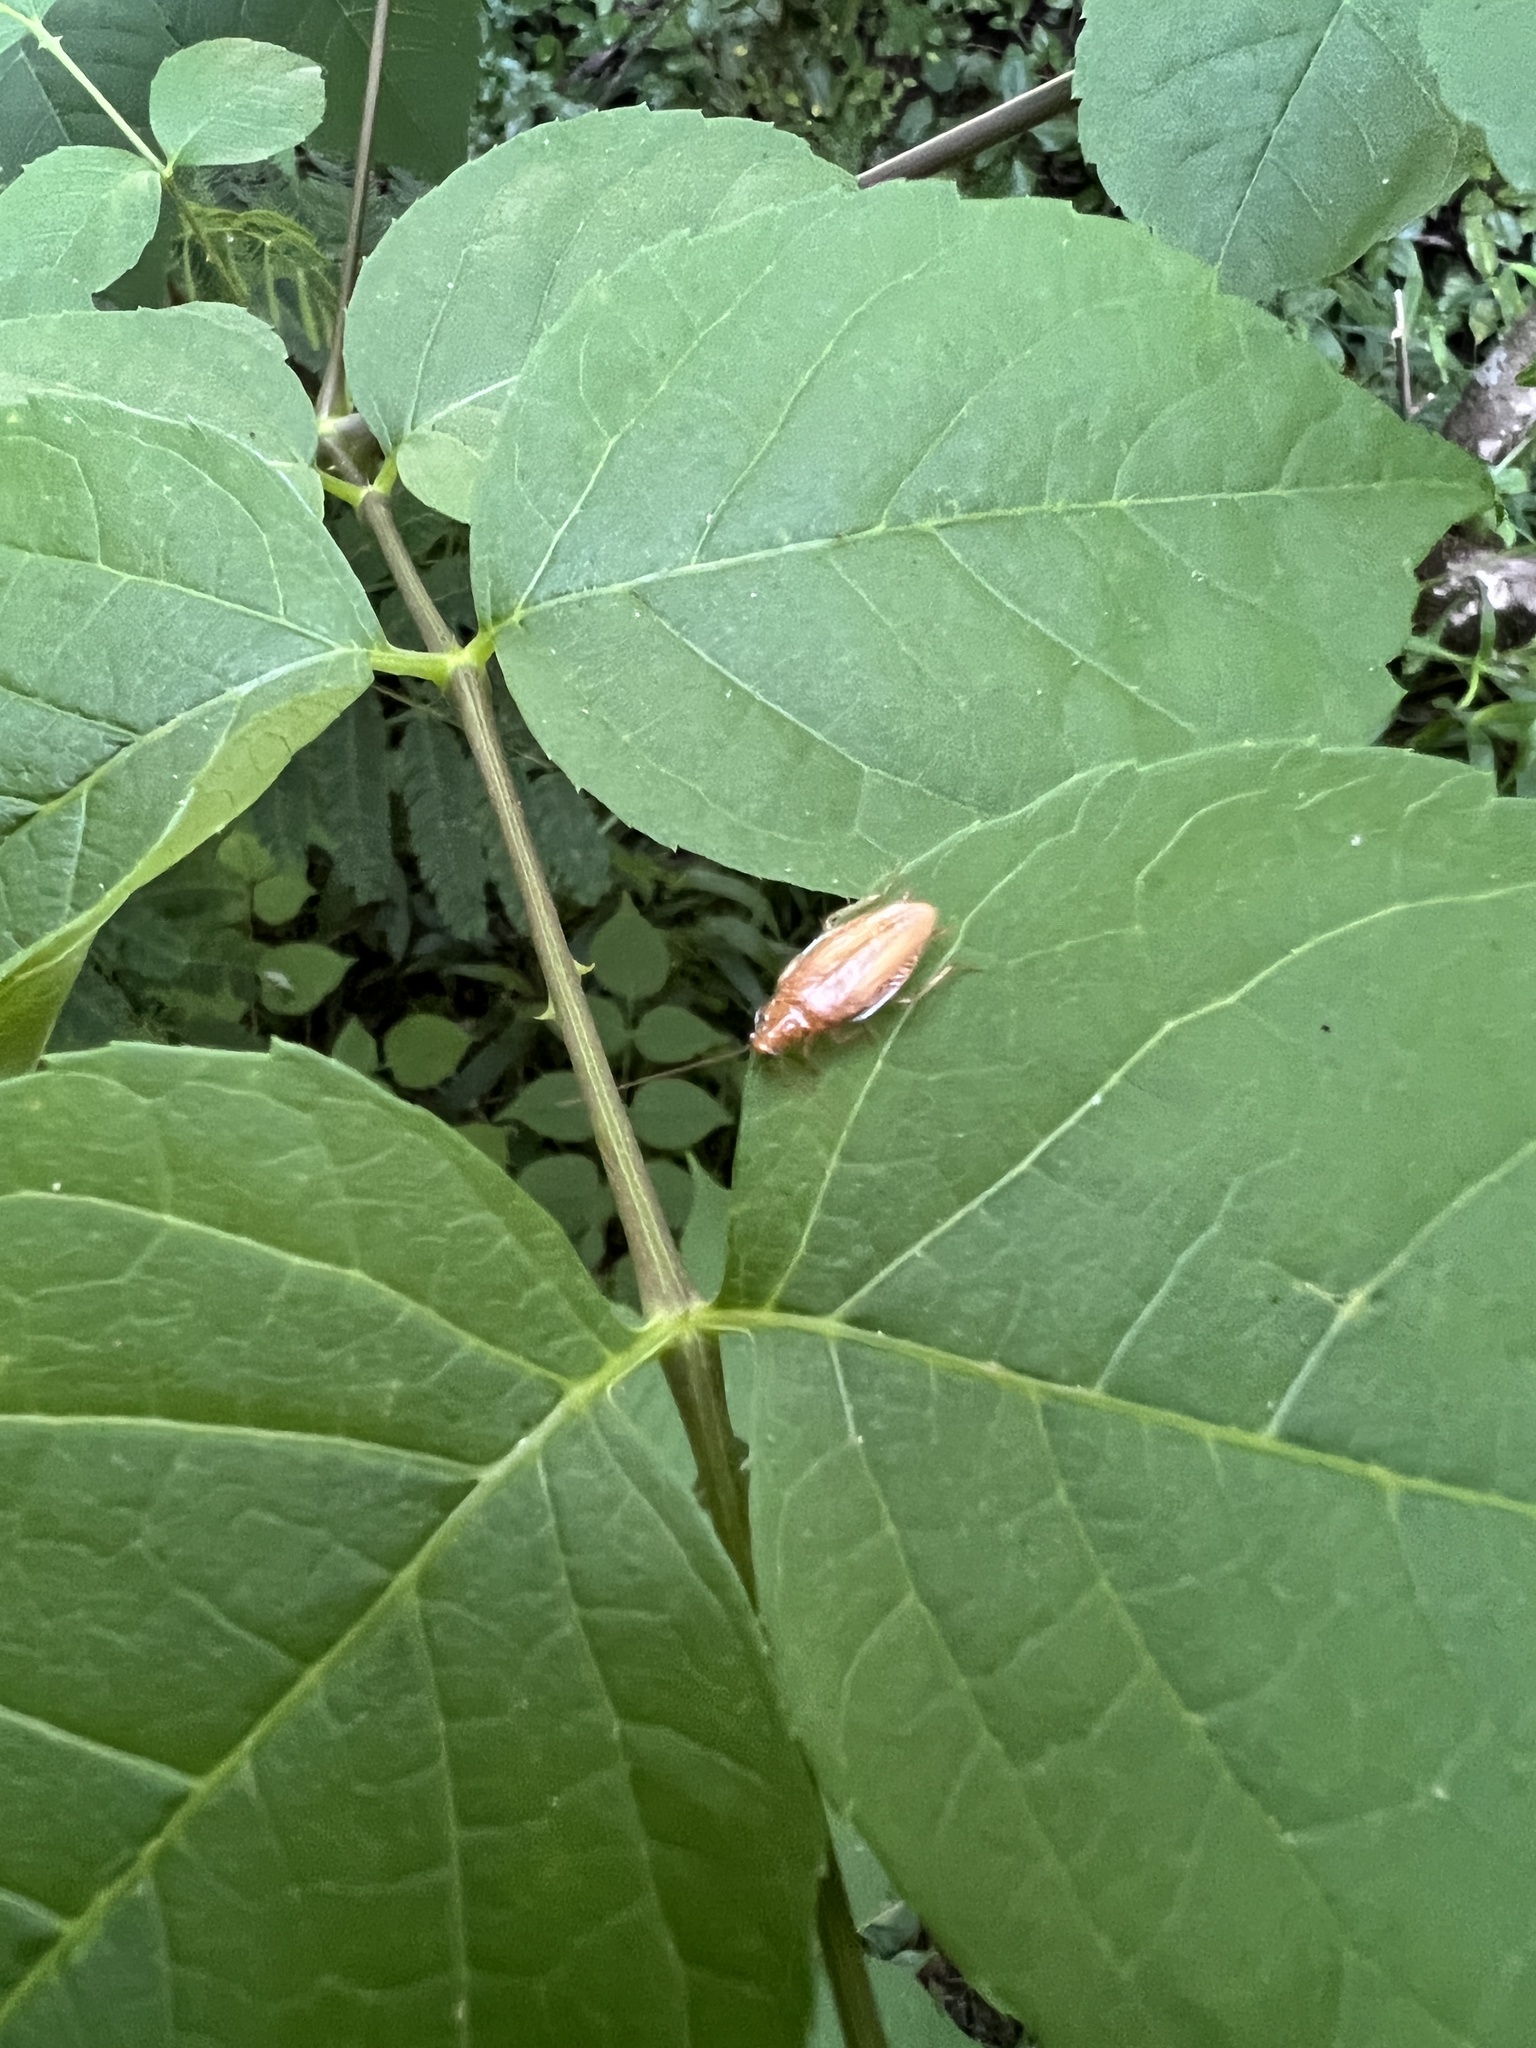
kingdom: Animalia
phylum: Arthropoda
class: Insecta
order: Blattodea
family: Ectobiidae
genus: Ectobius
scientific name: Ectobius pallidus
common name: Tawny cockroach
